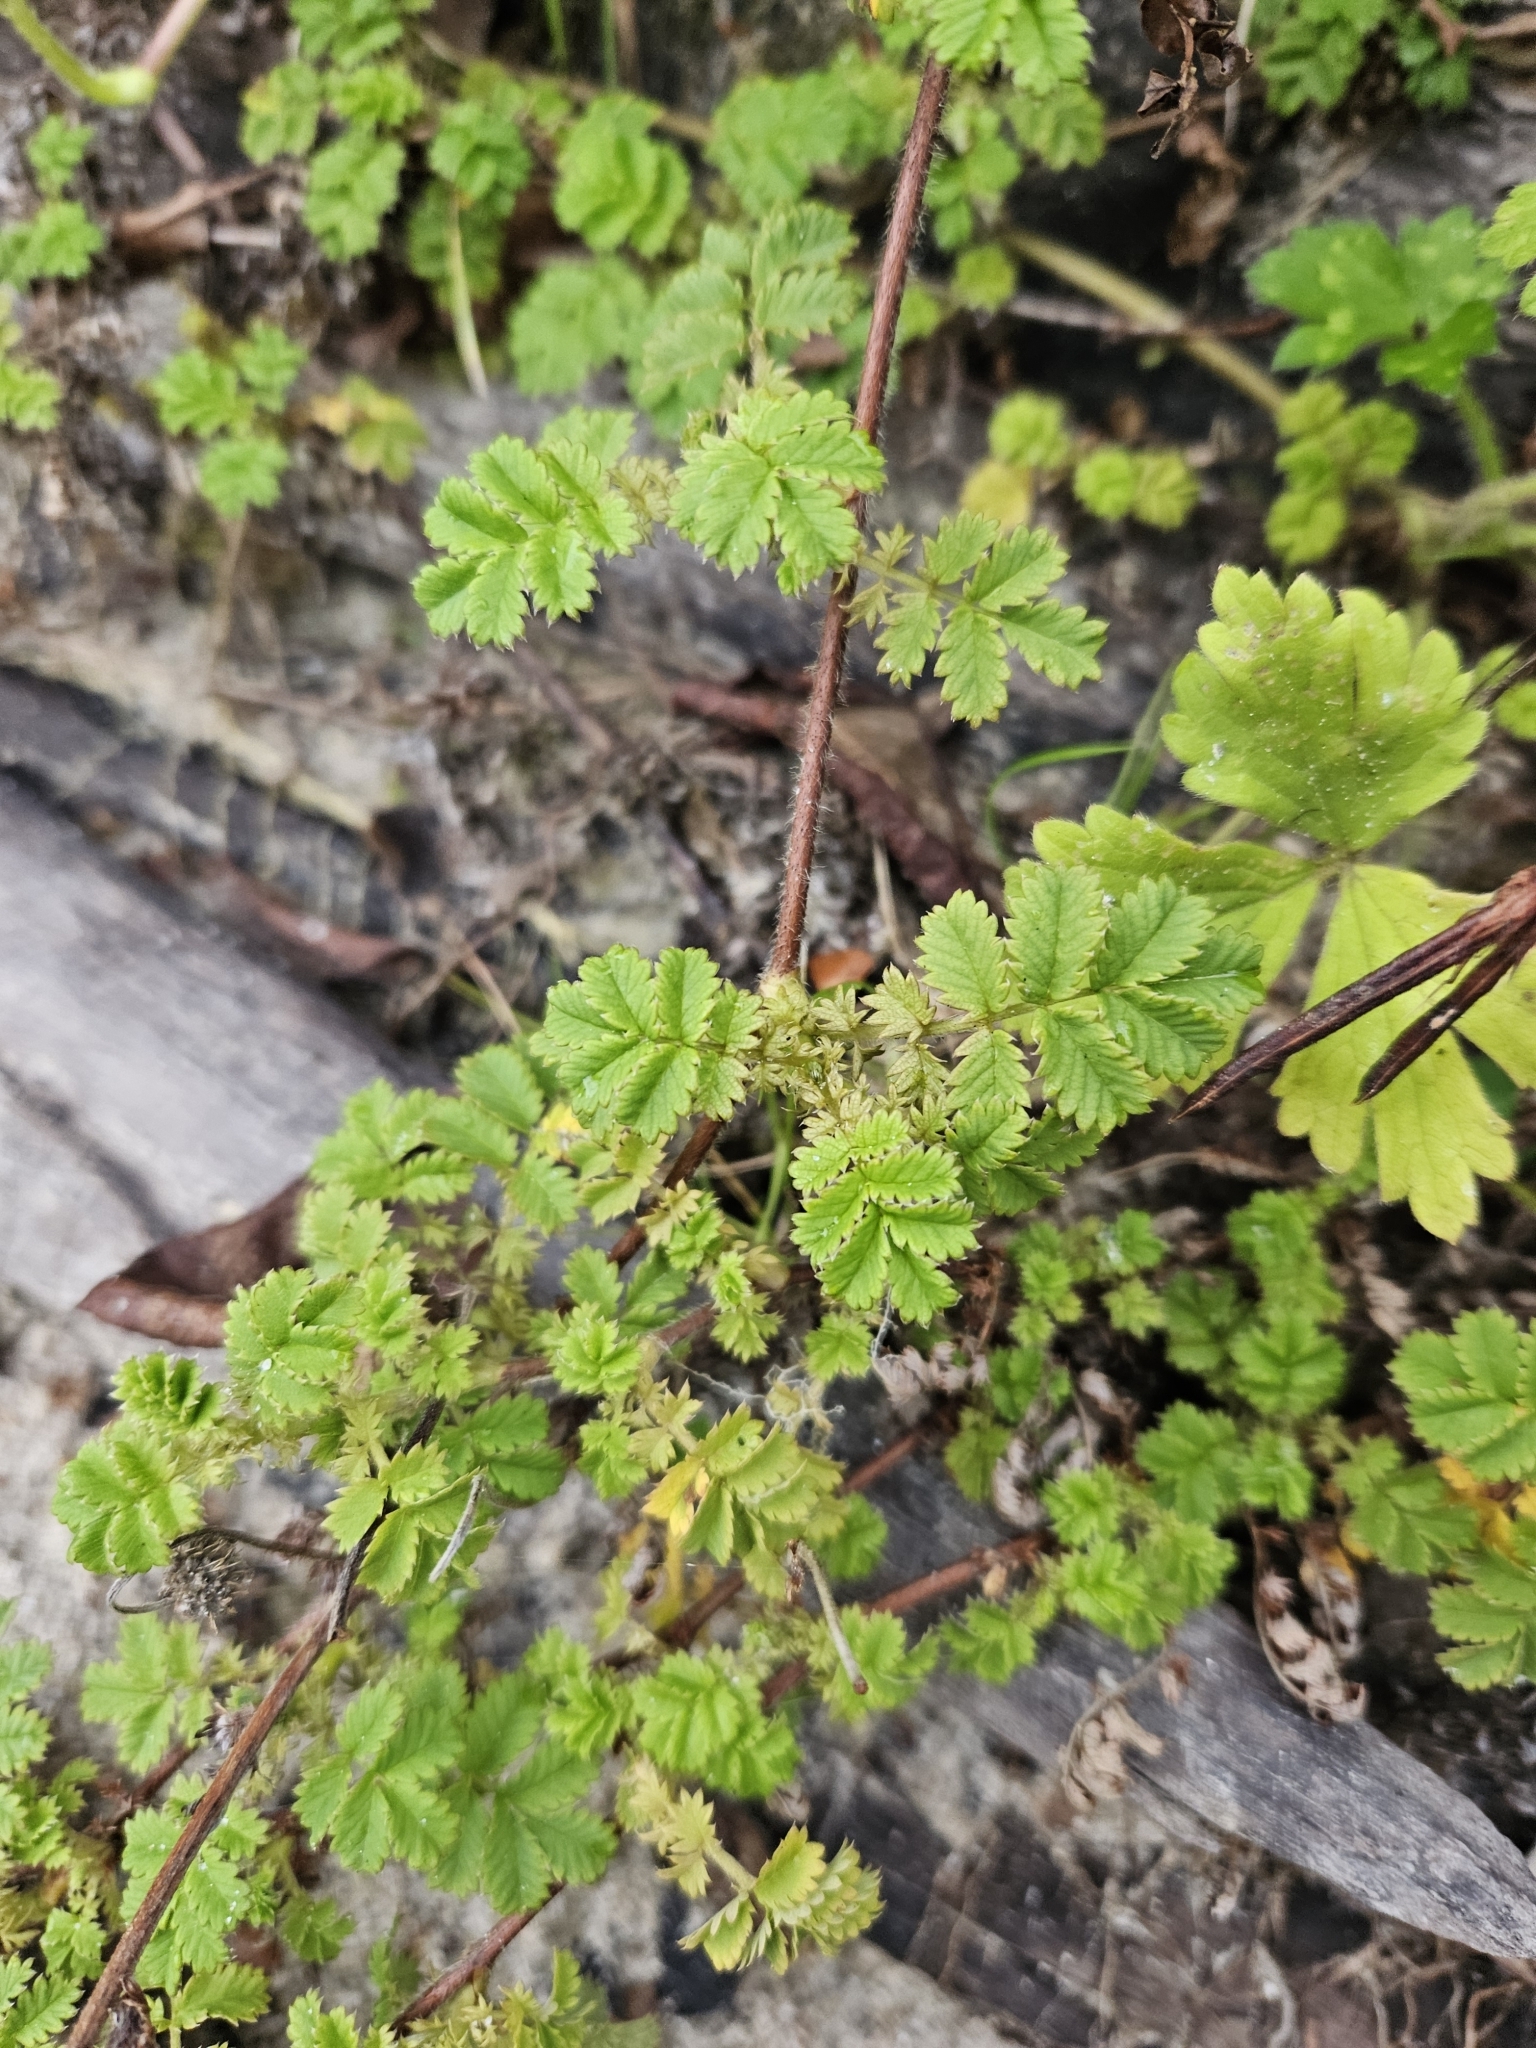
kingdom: Plantae
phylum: Tracheophyta
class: Magnoliopsida
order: Rosales
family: Rosaceae
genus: Acaena
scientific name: Acaena anserinifolia
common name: Bronze pirri-pirri-bur
